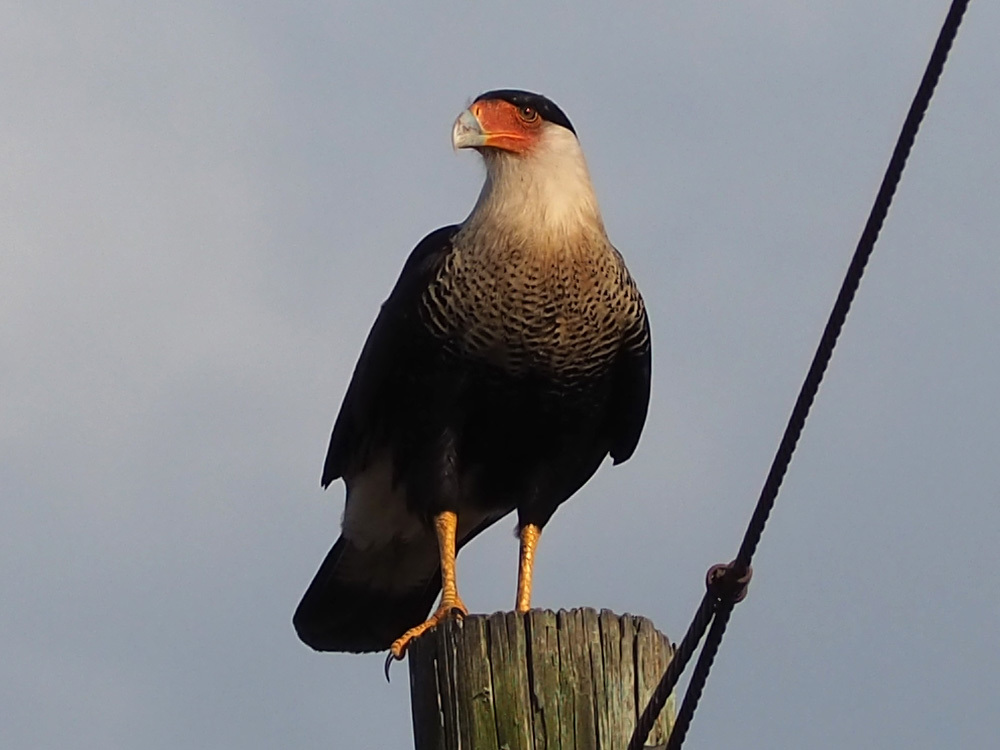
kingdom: Animalia
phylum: Chordata
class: Aves
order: Falconiformes
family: Falconidae
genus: Caracara
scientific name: Caracara plancus
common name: Southern caracara
